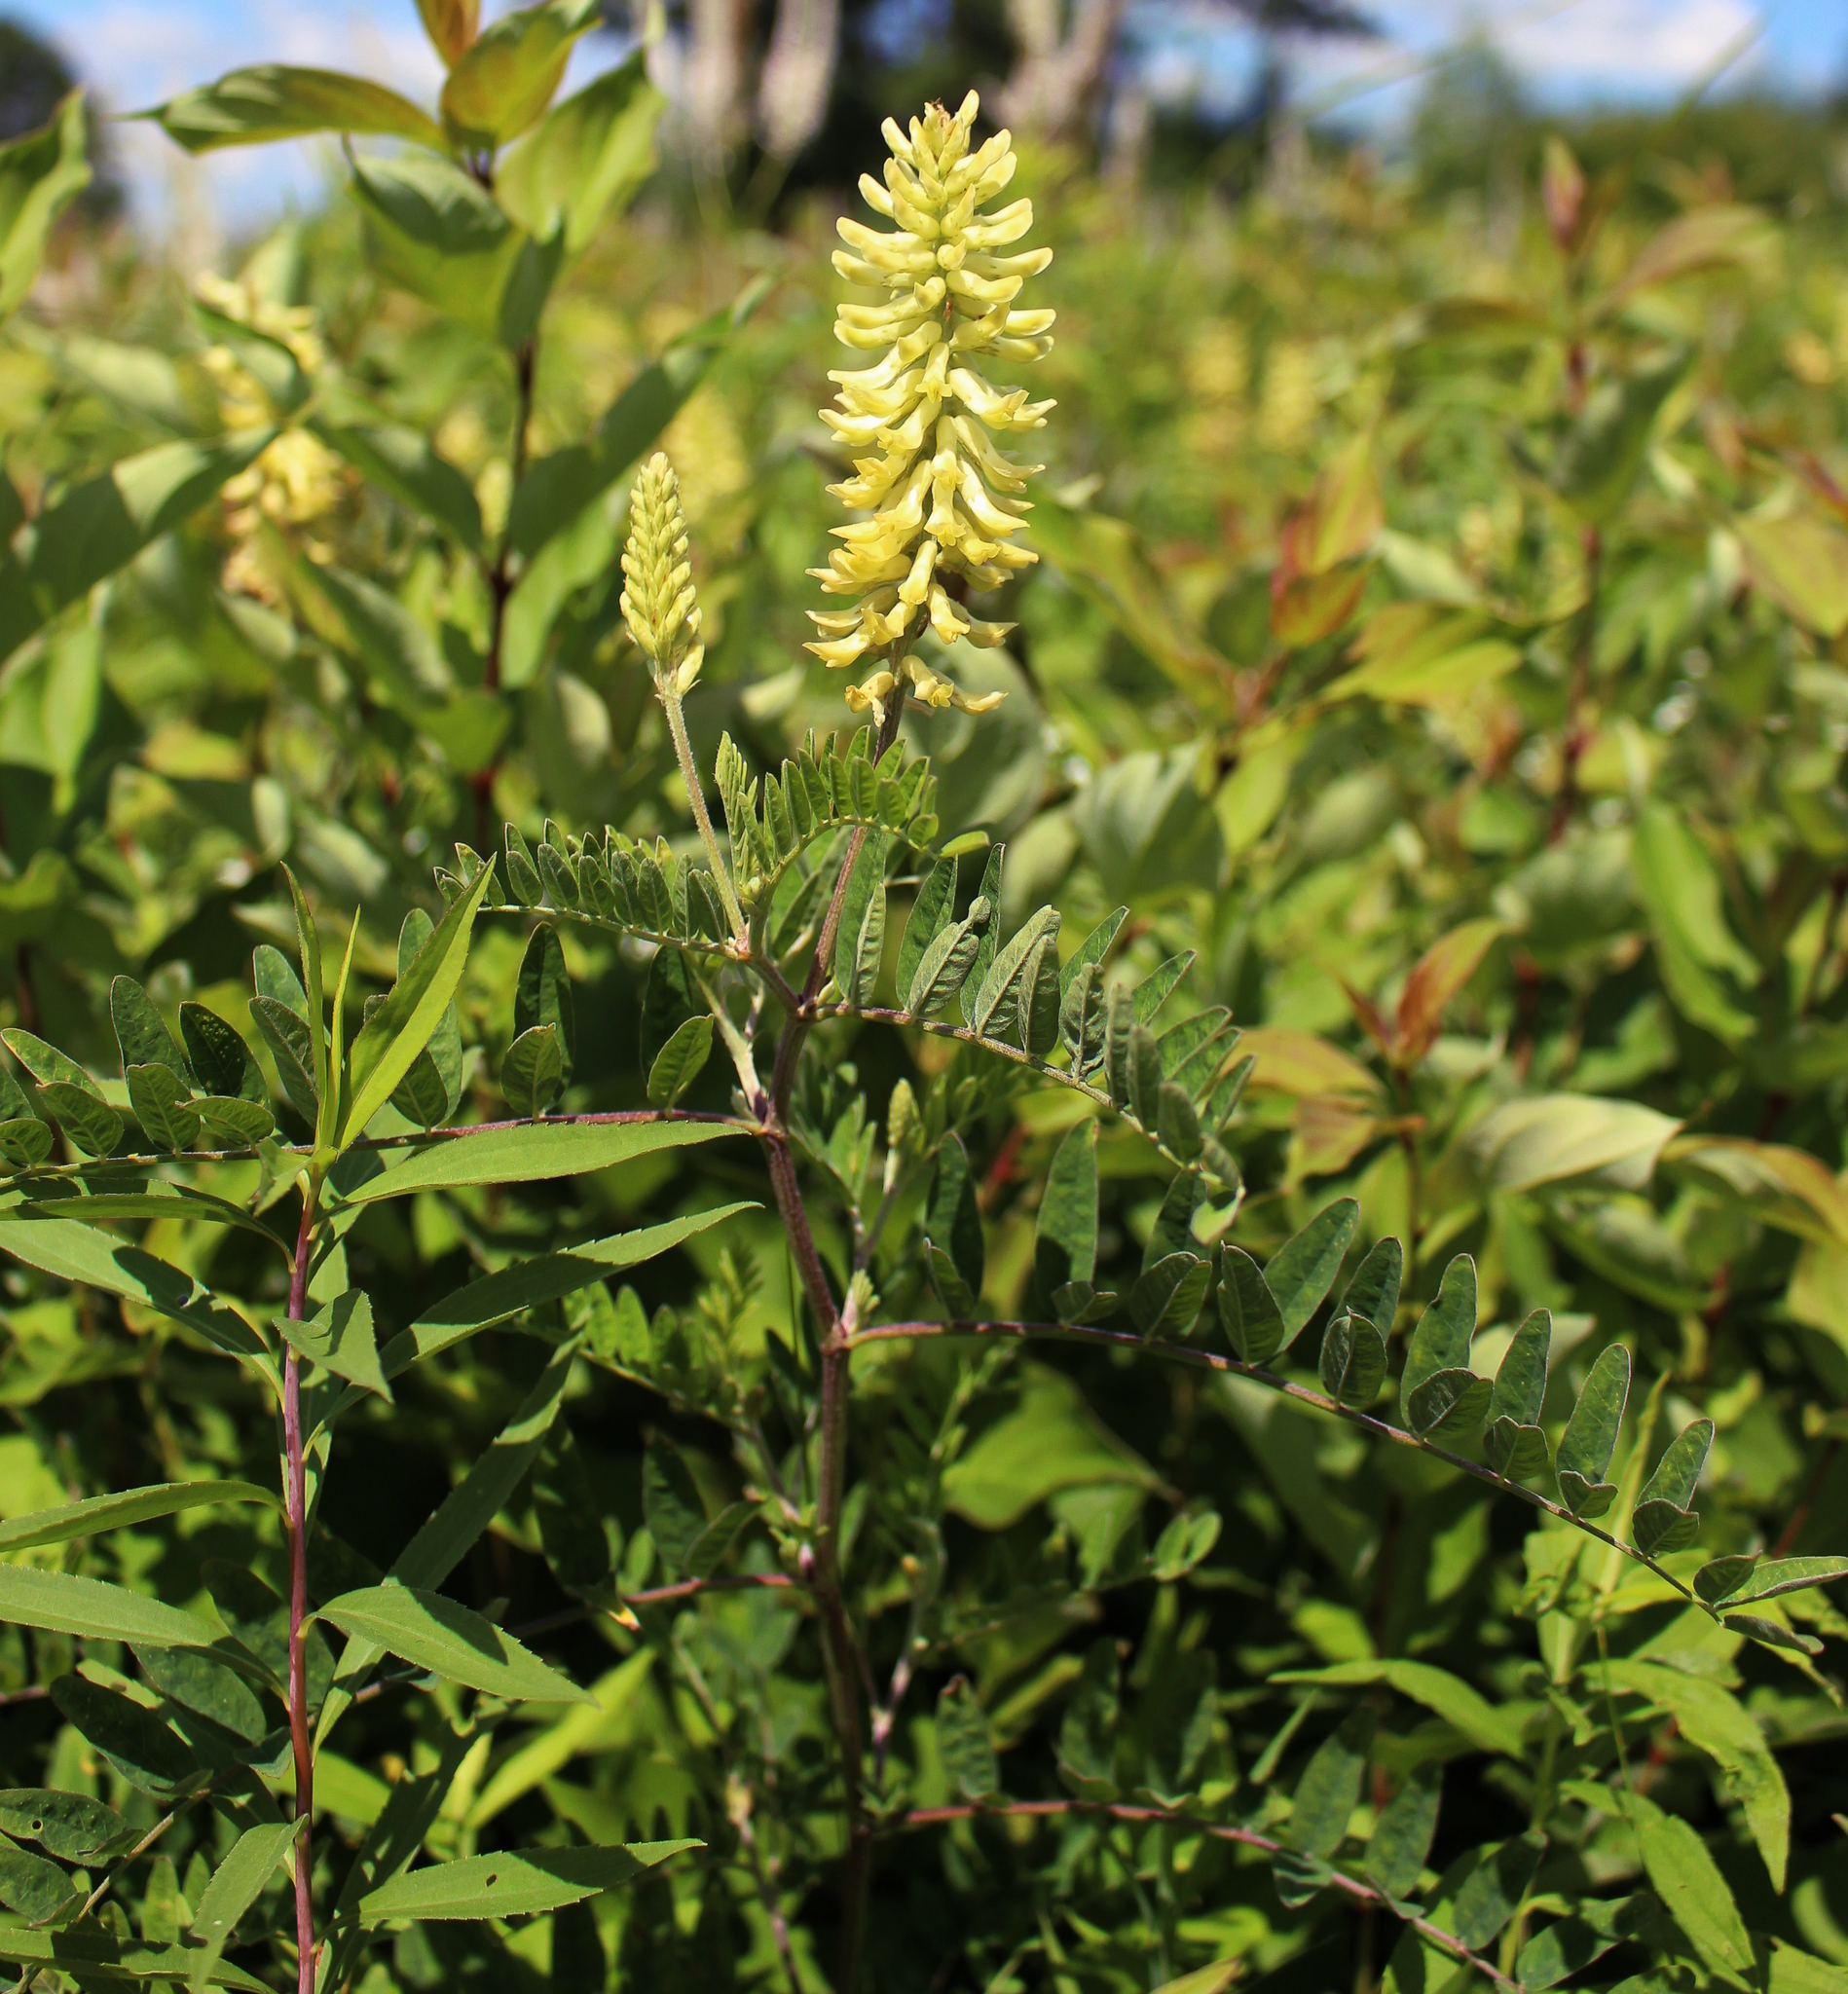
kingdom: Plantae
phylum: Tracheophyta
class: Magnoliopsida
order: Fabales
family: Fabaceae
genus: Astragalus
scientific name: Astragalus canadensis
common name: Canada milk-vetch
